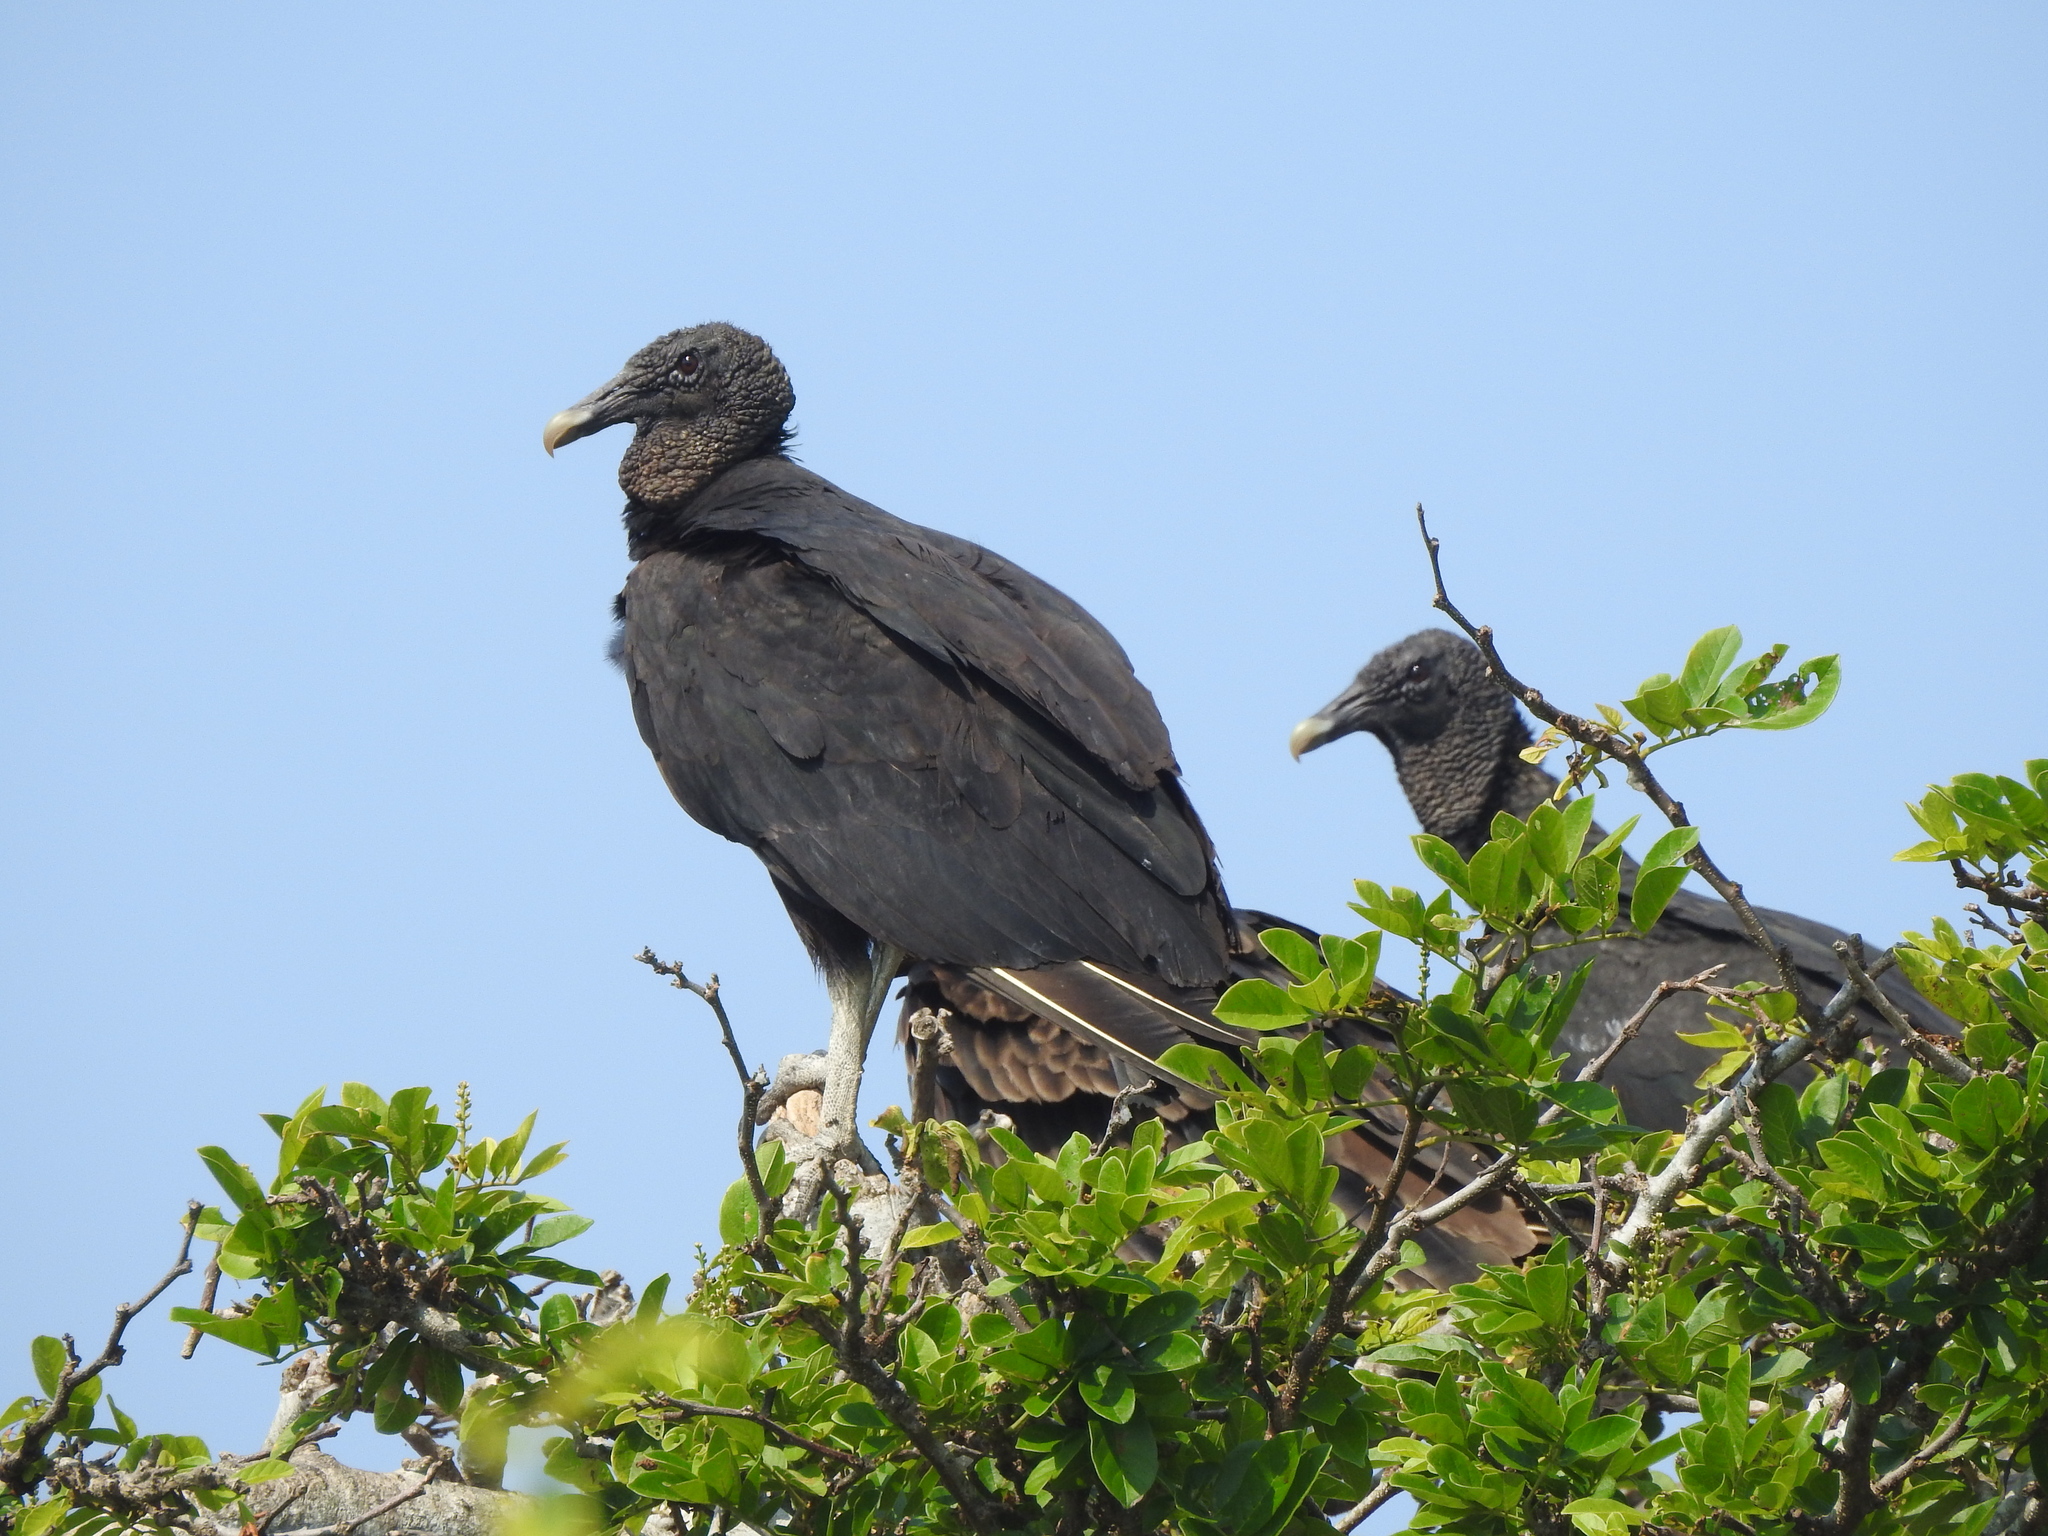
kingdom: Animalia
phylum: Chordata
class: Aves
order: Accipitriformes
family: Cathartidae
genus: Coragyps
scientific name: Coragyps atratus
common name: Black vulture
